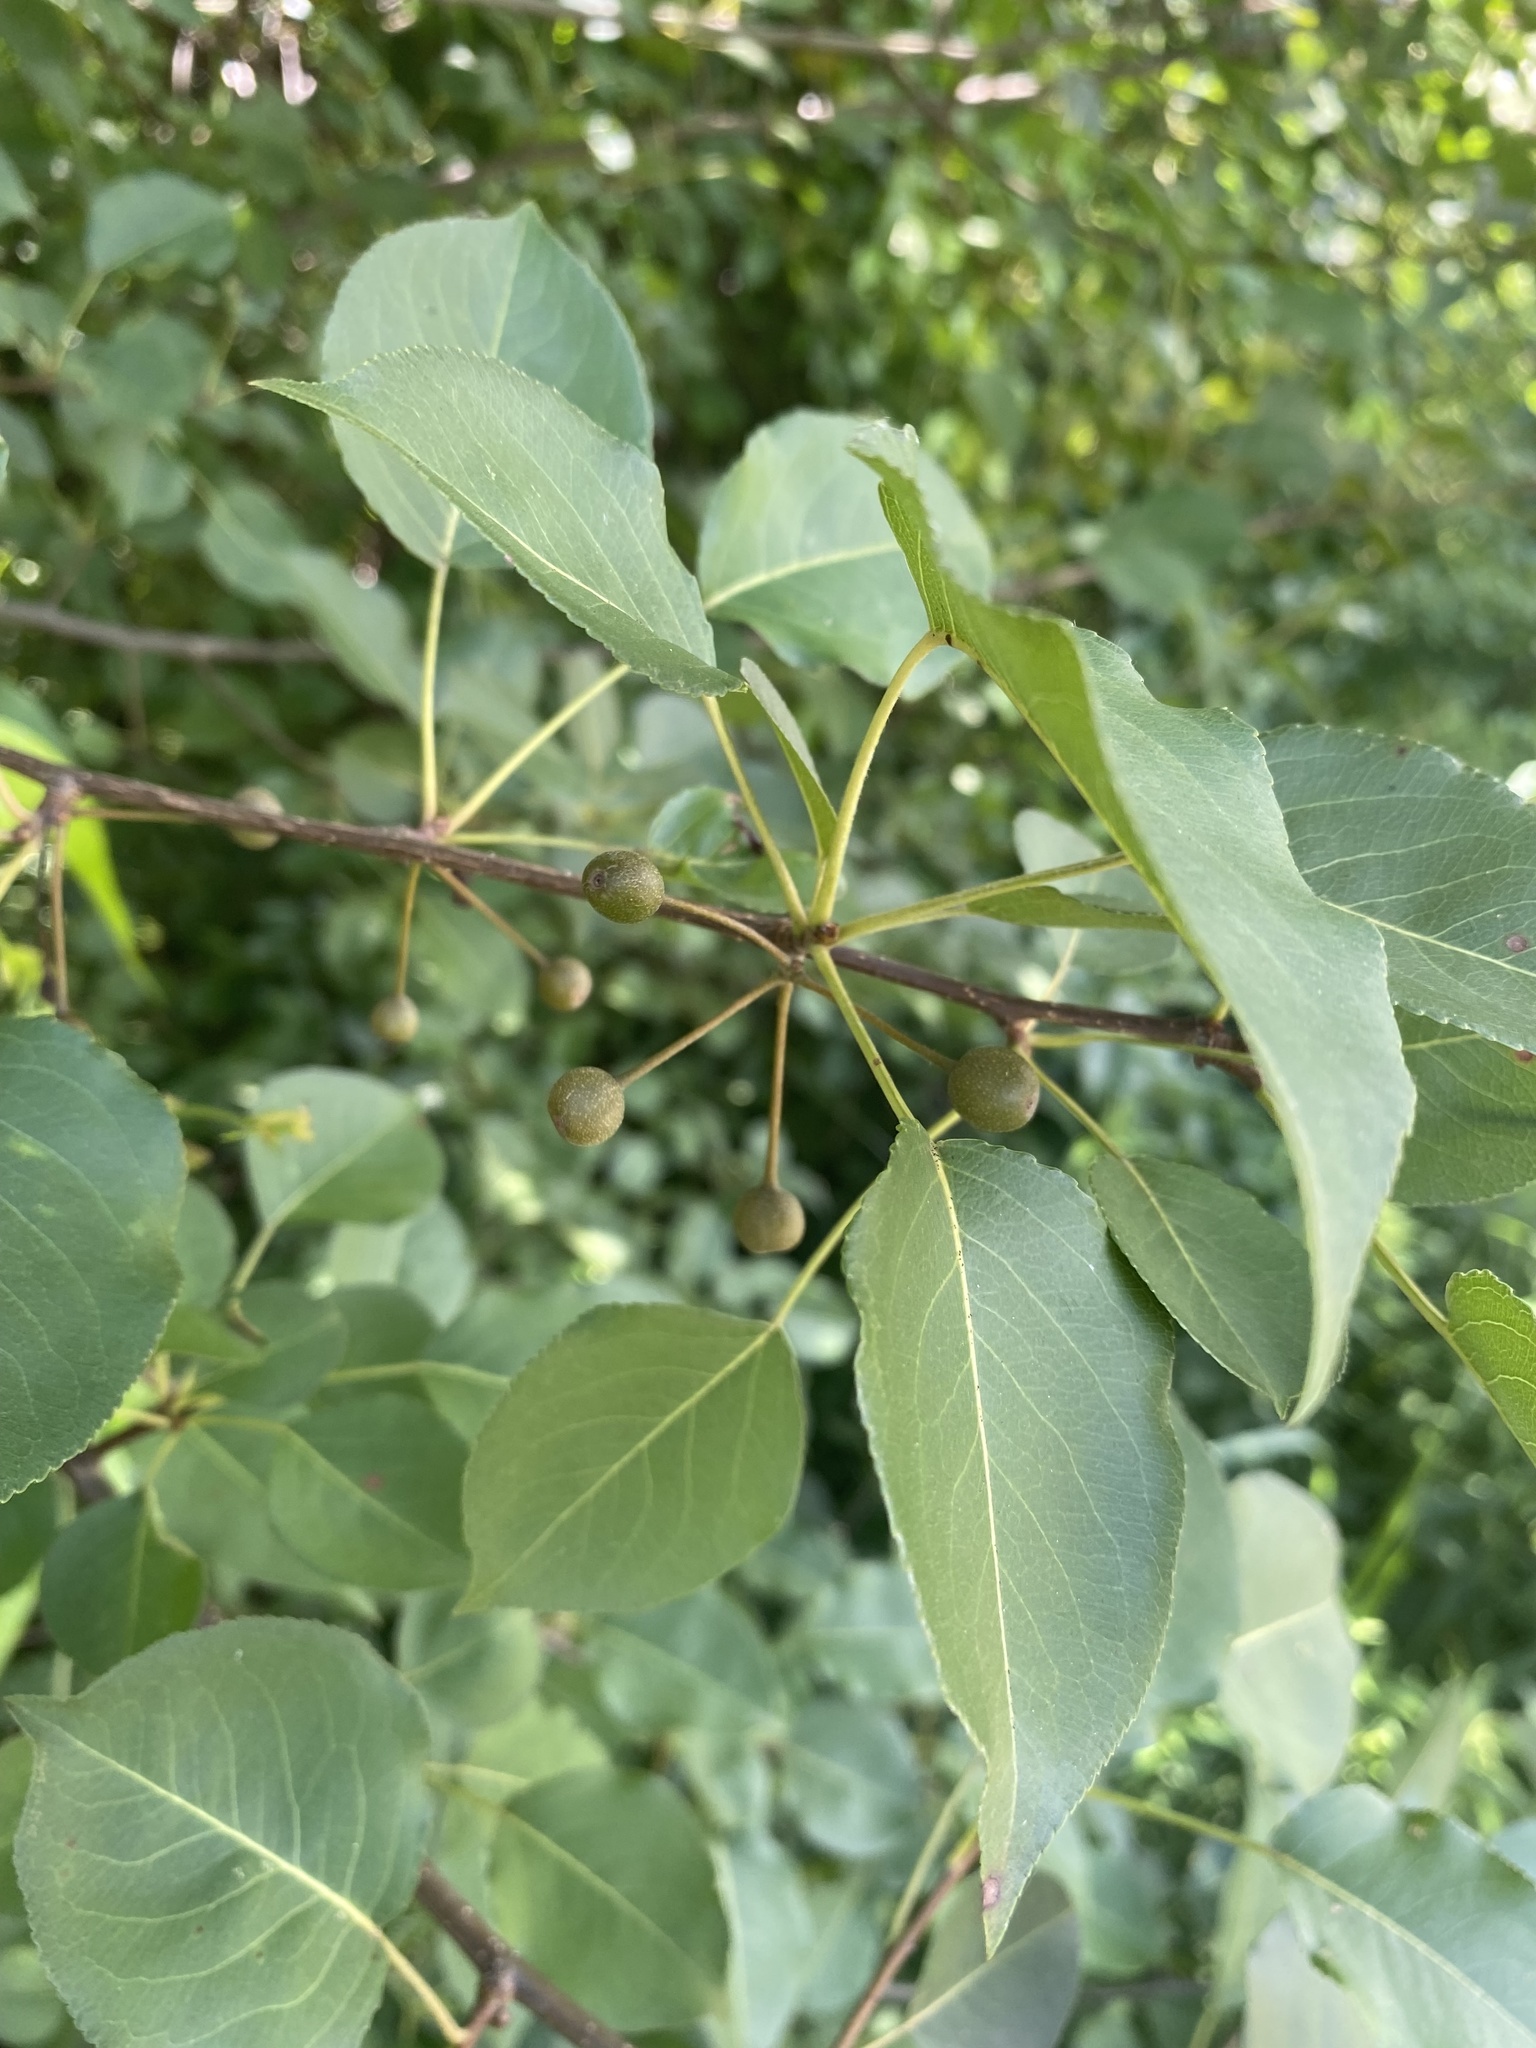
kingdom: Plantae
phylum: Tracheophyta
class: Magnoliopsida
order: Rosales
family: Rosaceae
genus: Pyrus
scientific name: Pyrus calleryana
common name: Callery pear
